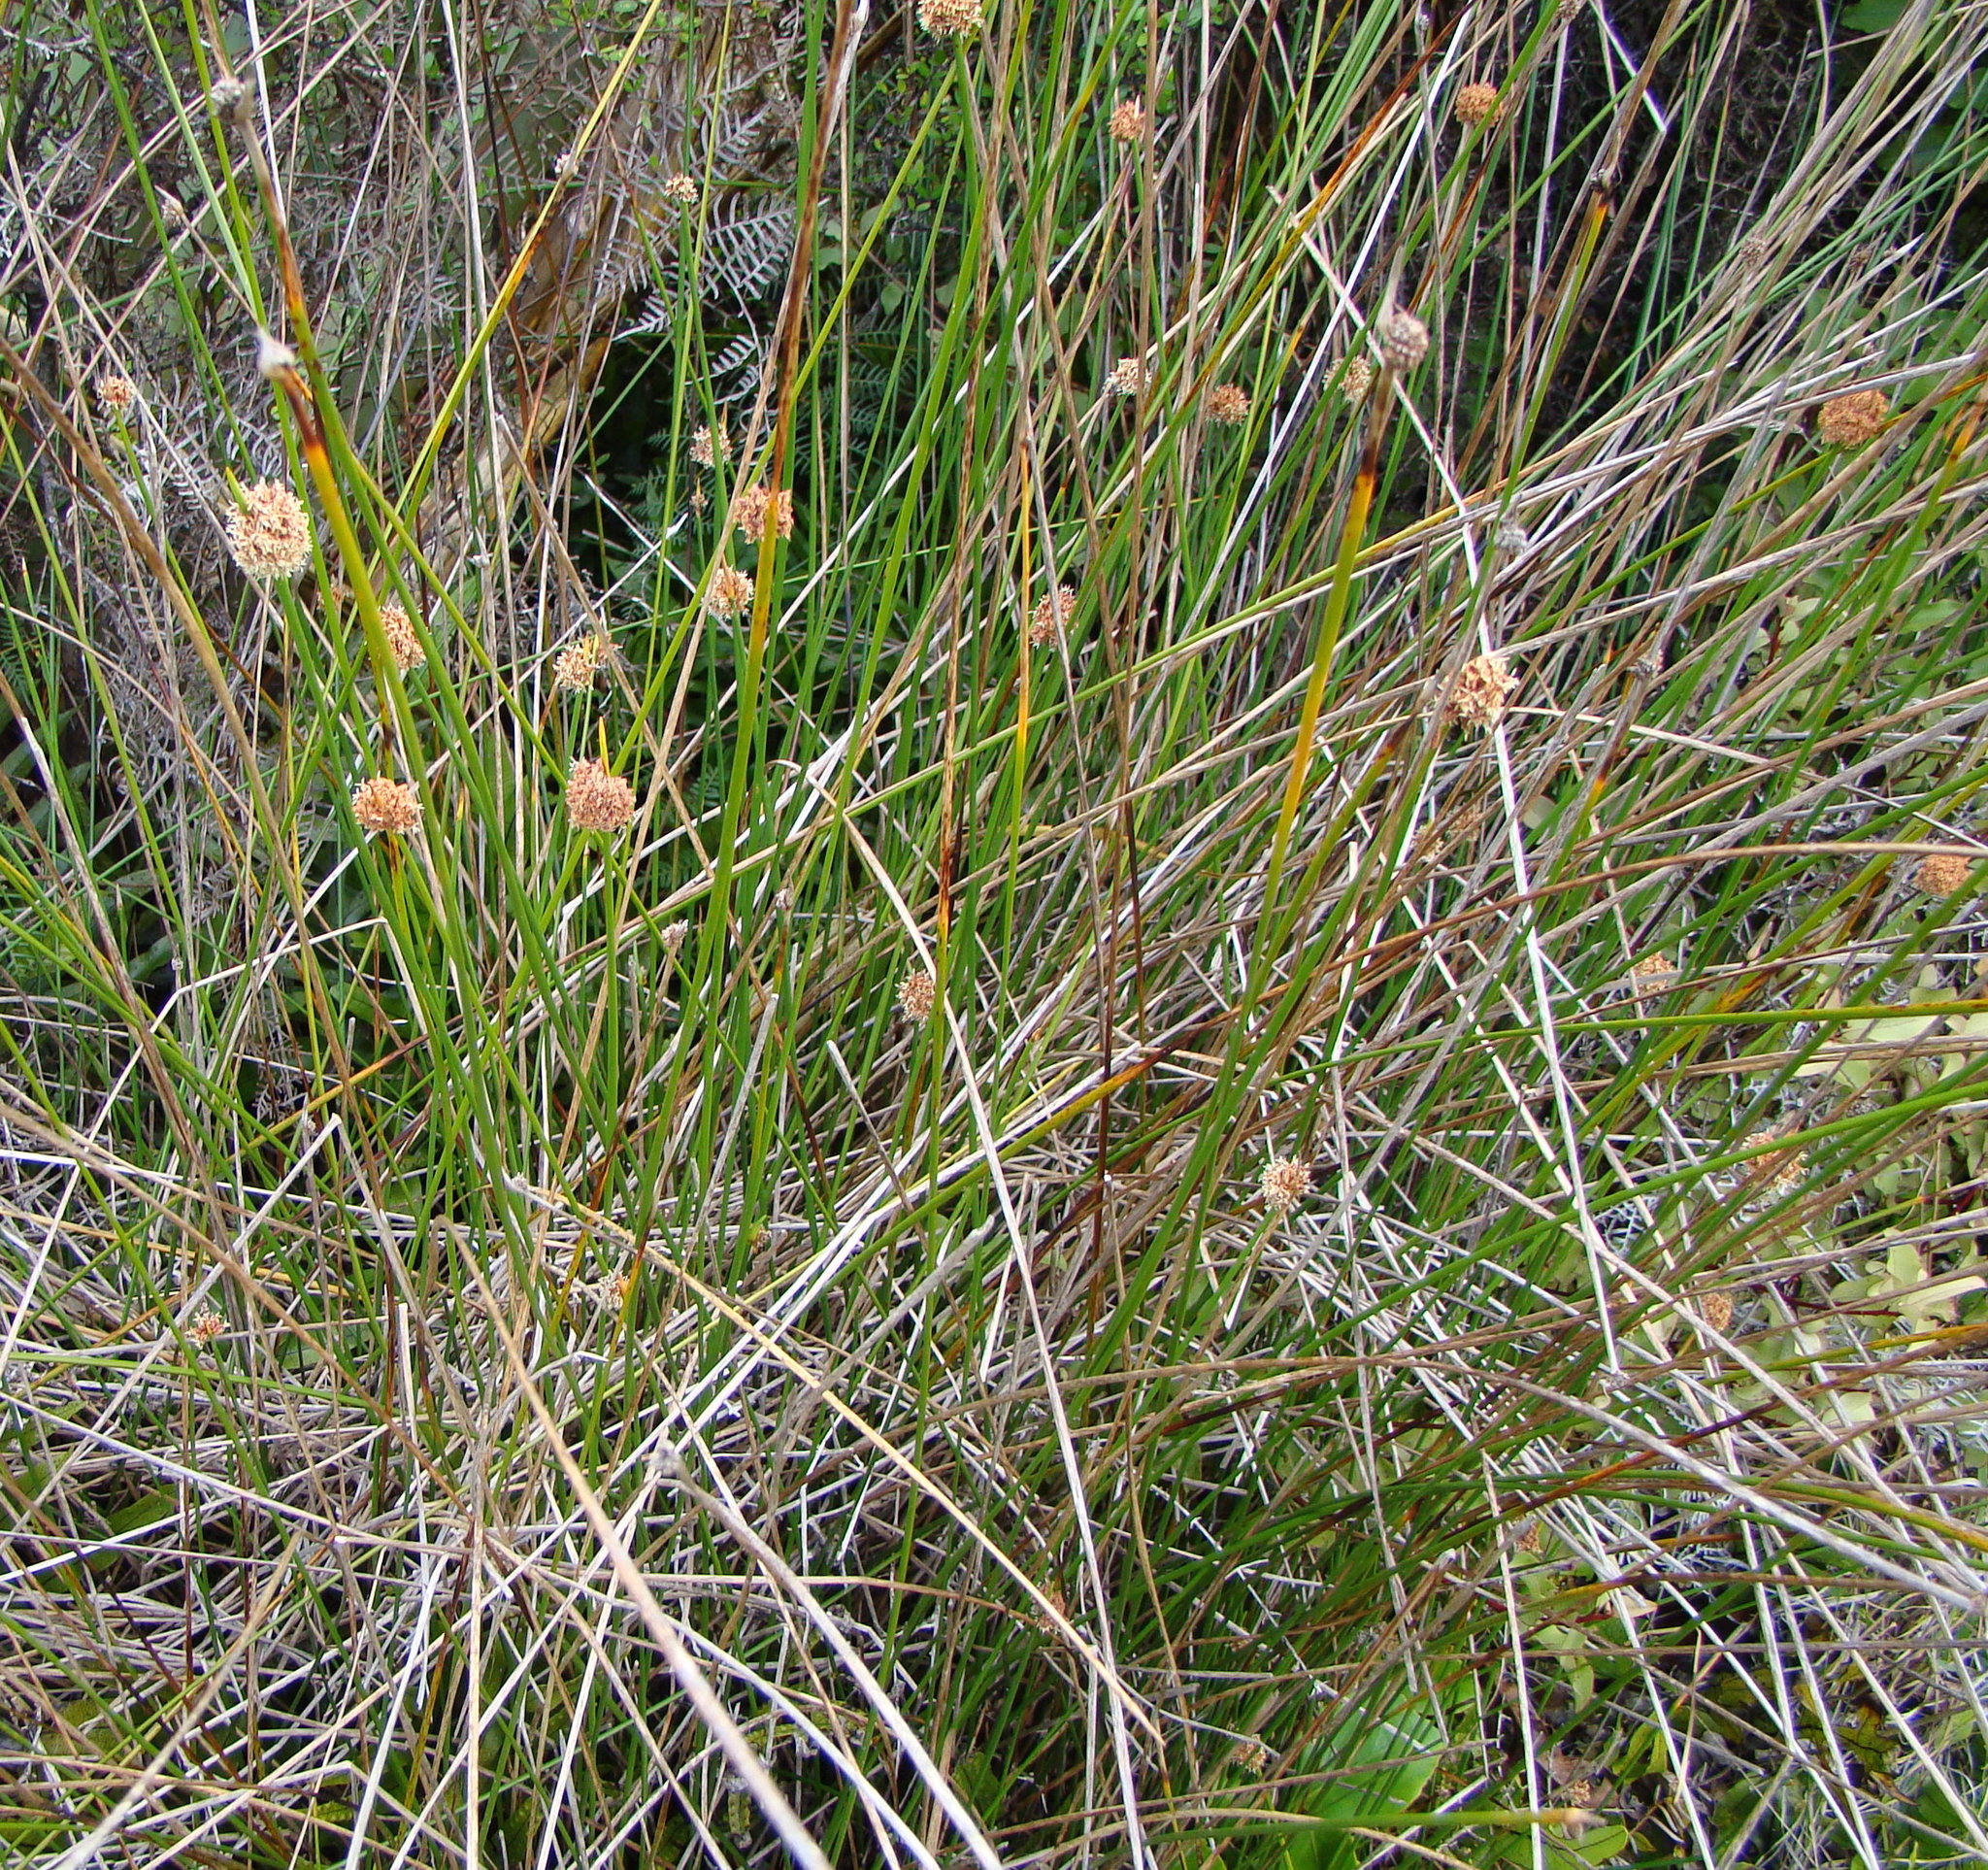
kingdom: Plantae
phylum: Tracheophyta
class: Liliopsida
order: Poales
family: Cyperaceae
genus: Ficinia
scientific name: Ficinia nodosa
